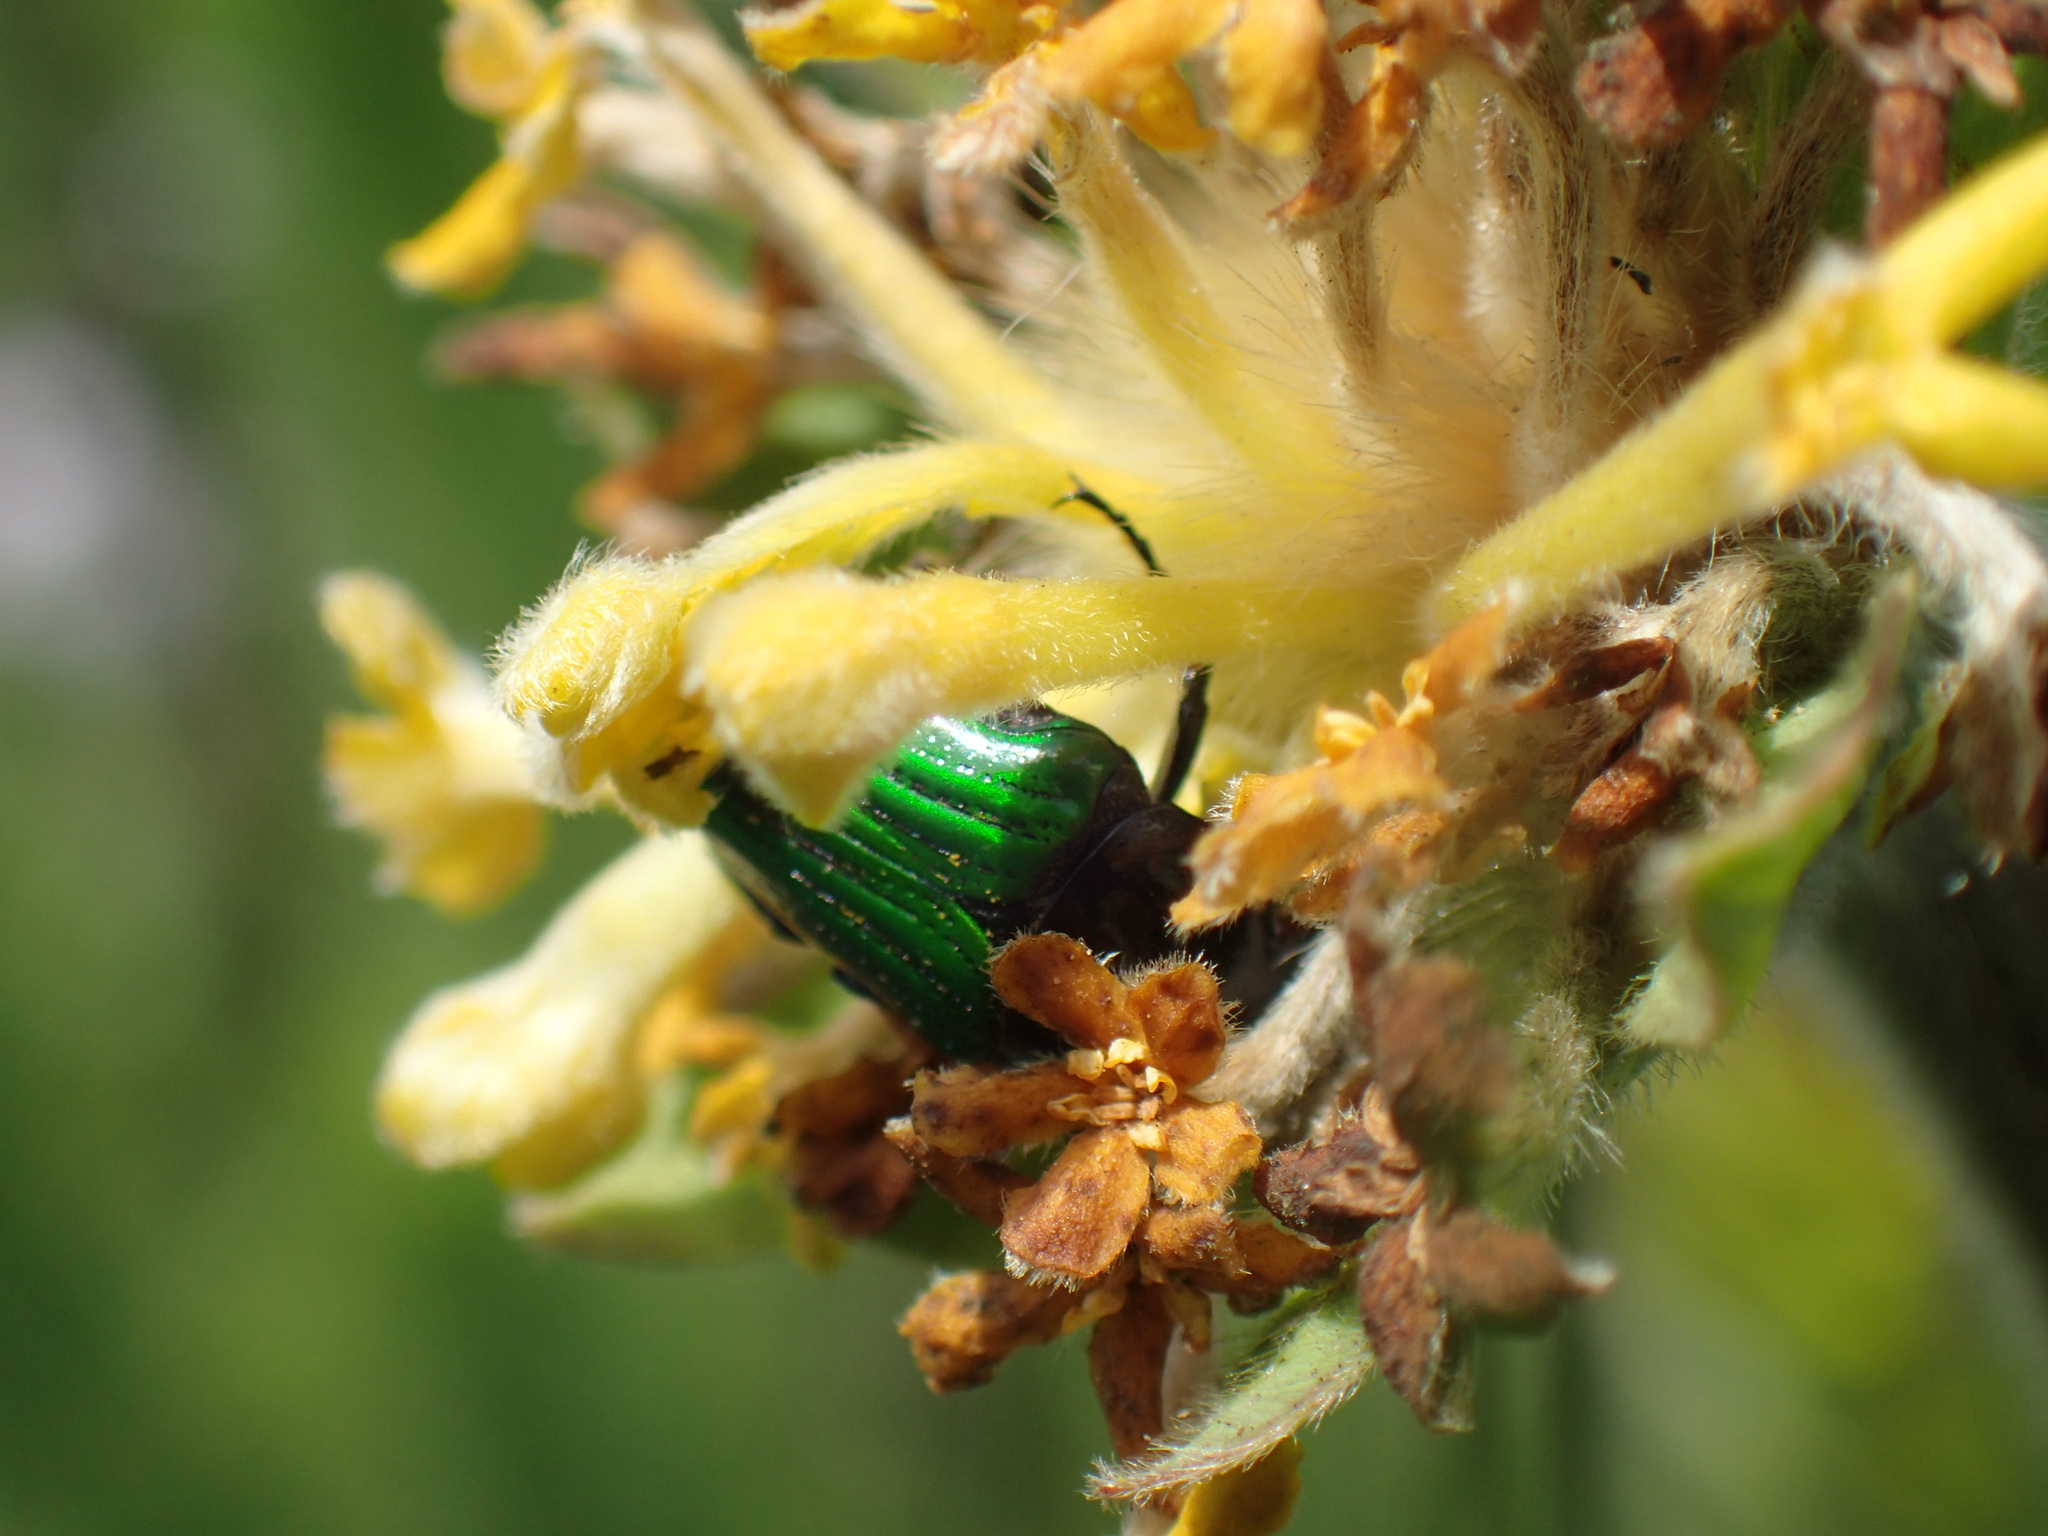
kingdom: Animalia
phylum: Arthropoda
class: Insecta
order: Coleoptera
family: Scarabaeidae
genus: Leucocelis
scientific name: Leucocelis haemorrhoidalis
